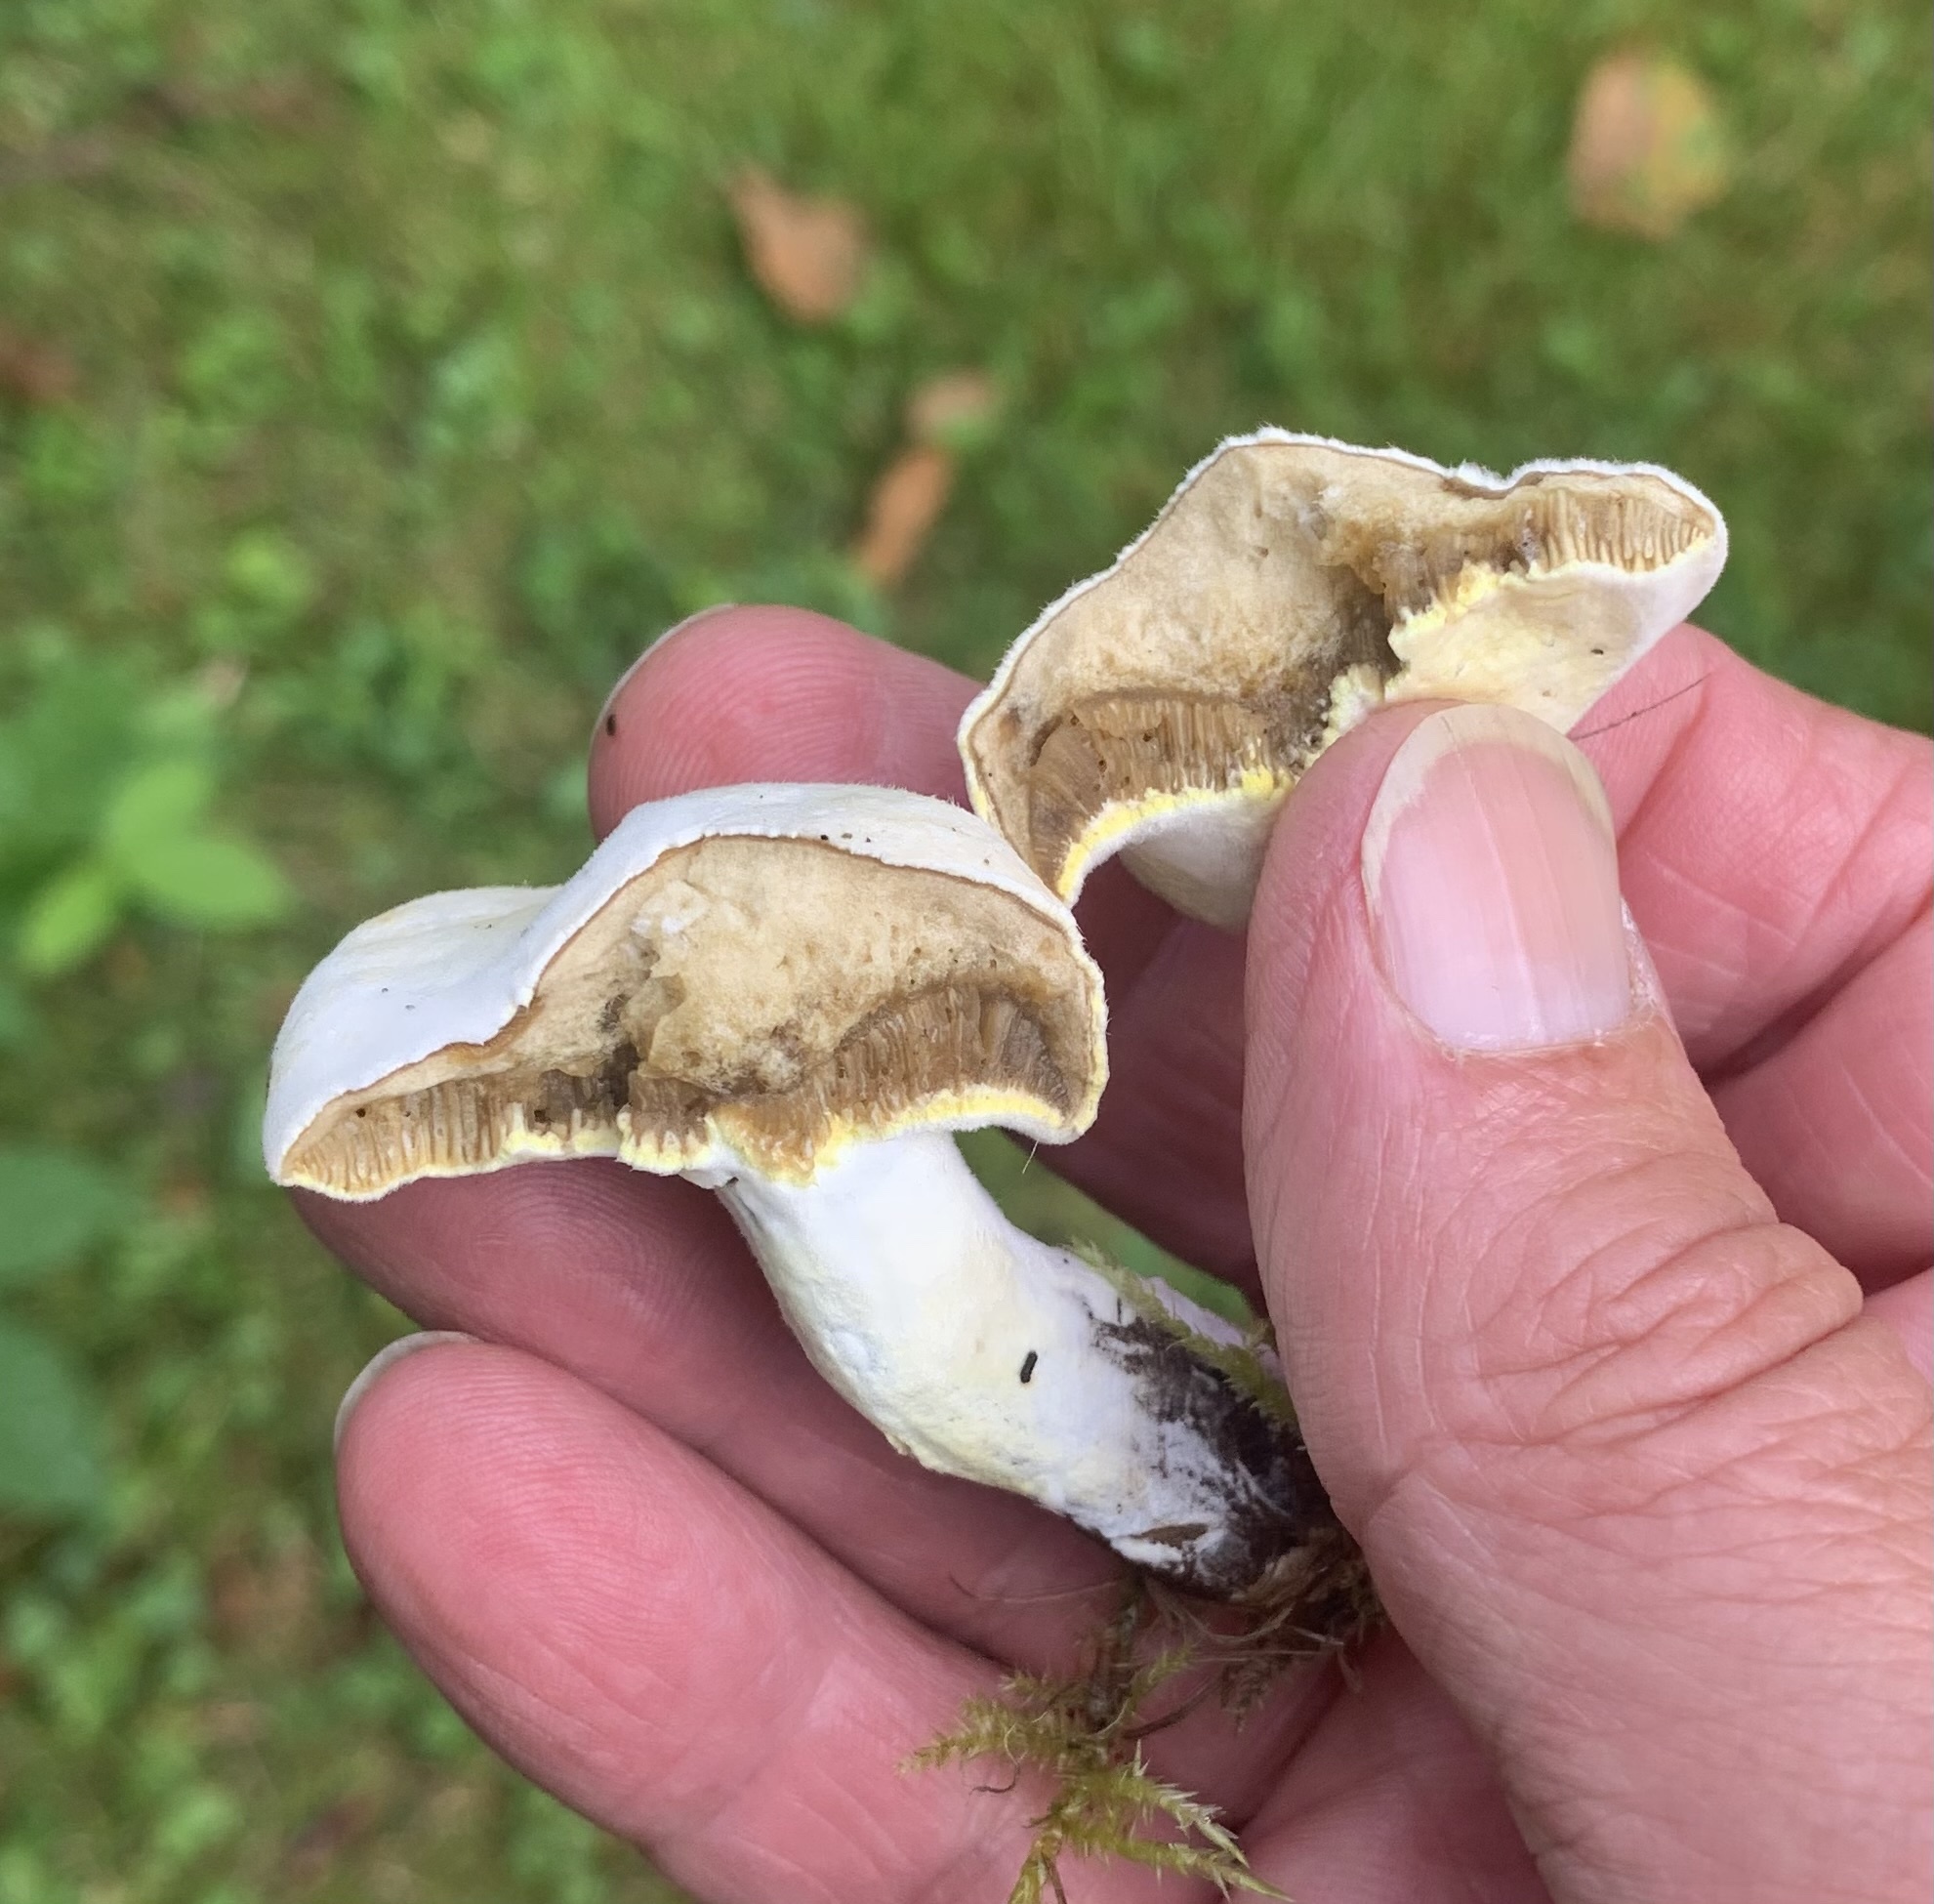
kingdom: Fungi
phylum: Ascomycota
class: Sordariomycetes
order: Hypocreales
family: Hypocreaceae
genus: Hypomyces
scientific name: Hypomyces chrysospermus
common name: Bolete mould
